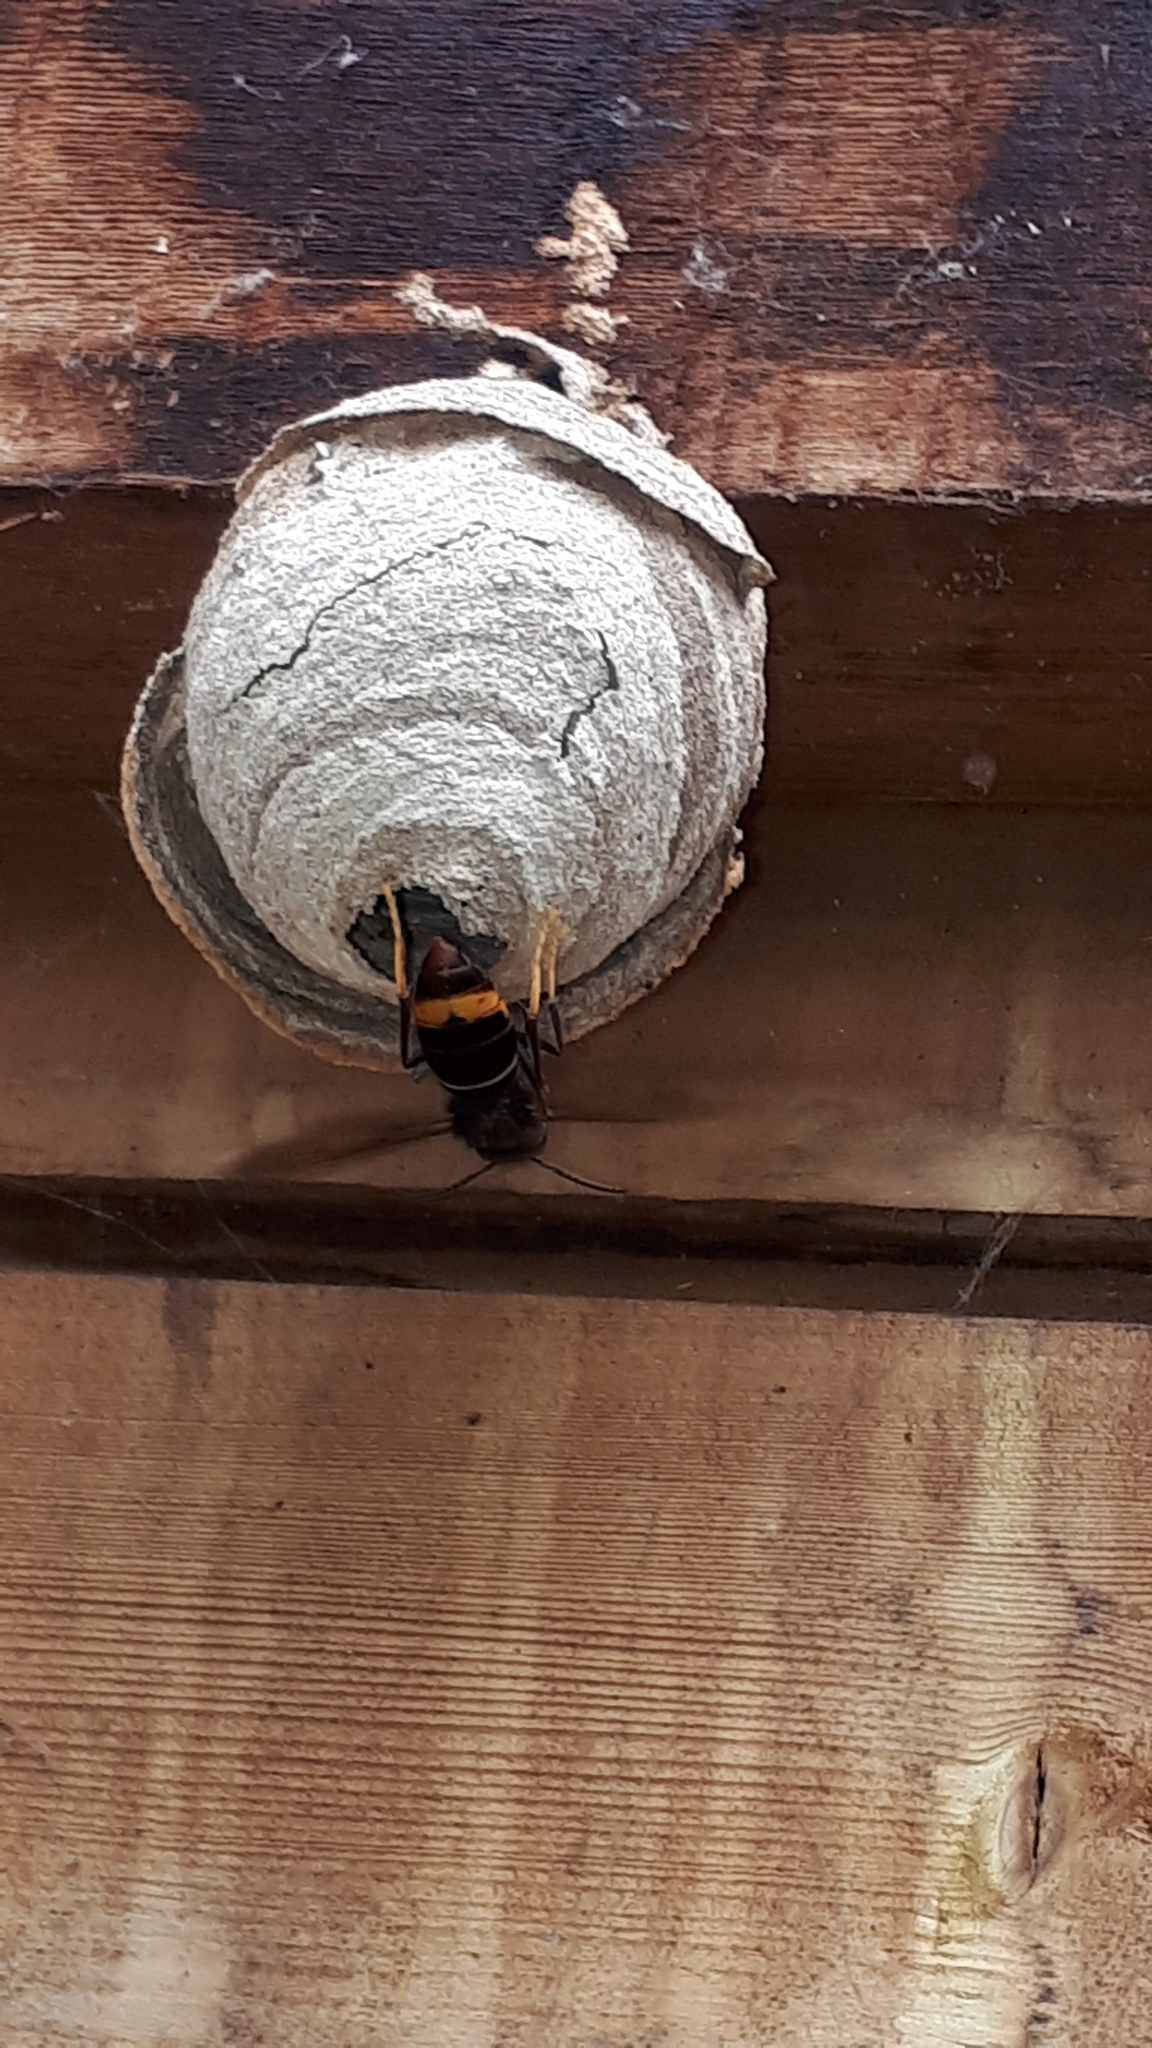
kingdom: Animalia
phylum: Arthropoda
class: Insecta
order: Hymenoptera
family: Vespidae
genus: Vespa
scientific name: Vespa velutina
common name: Asian hornet
